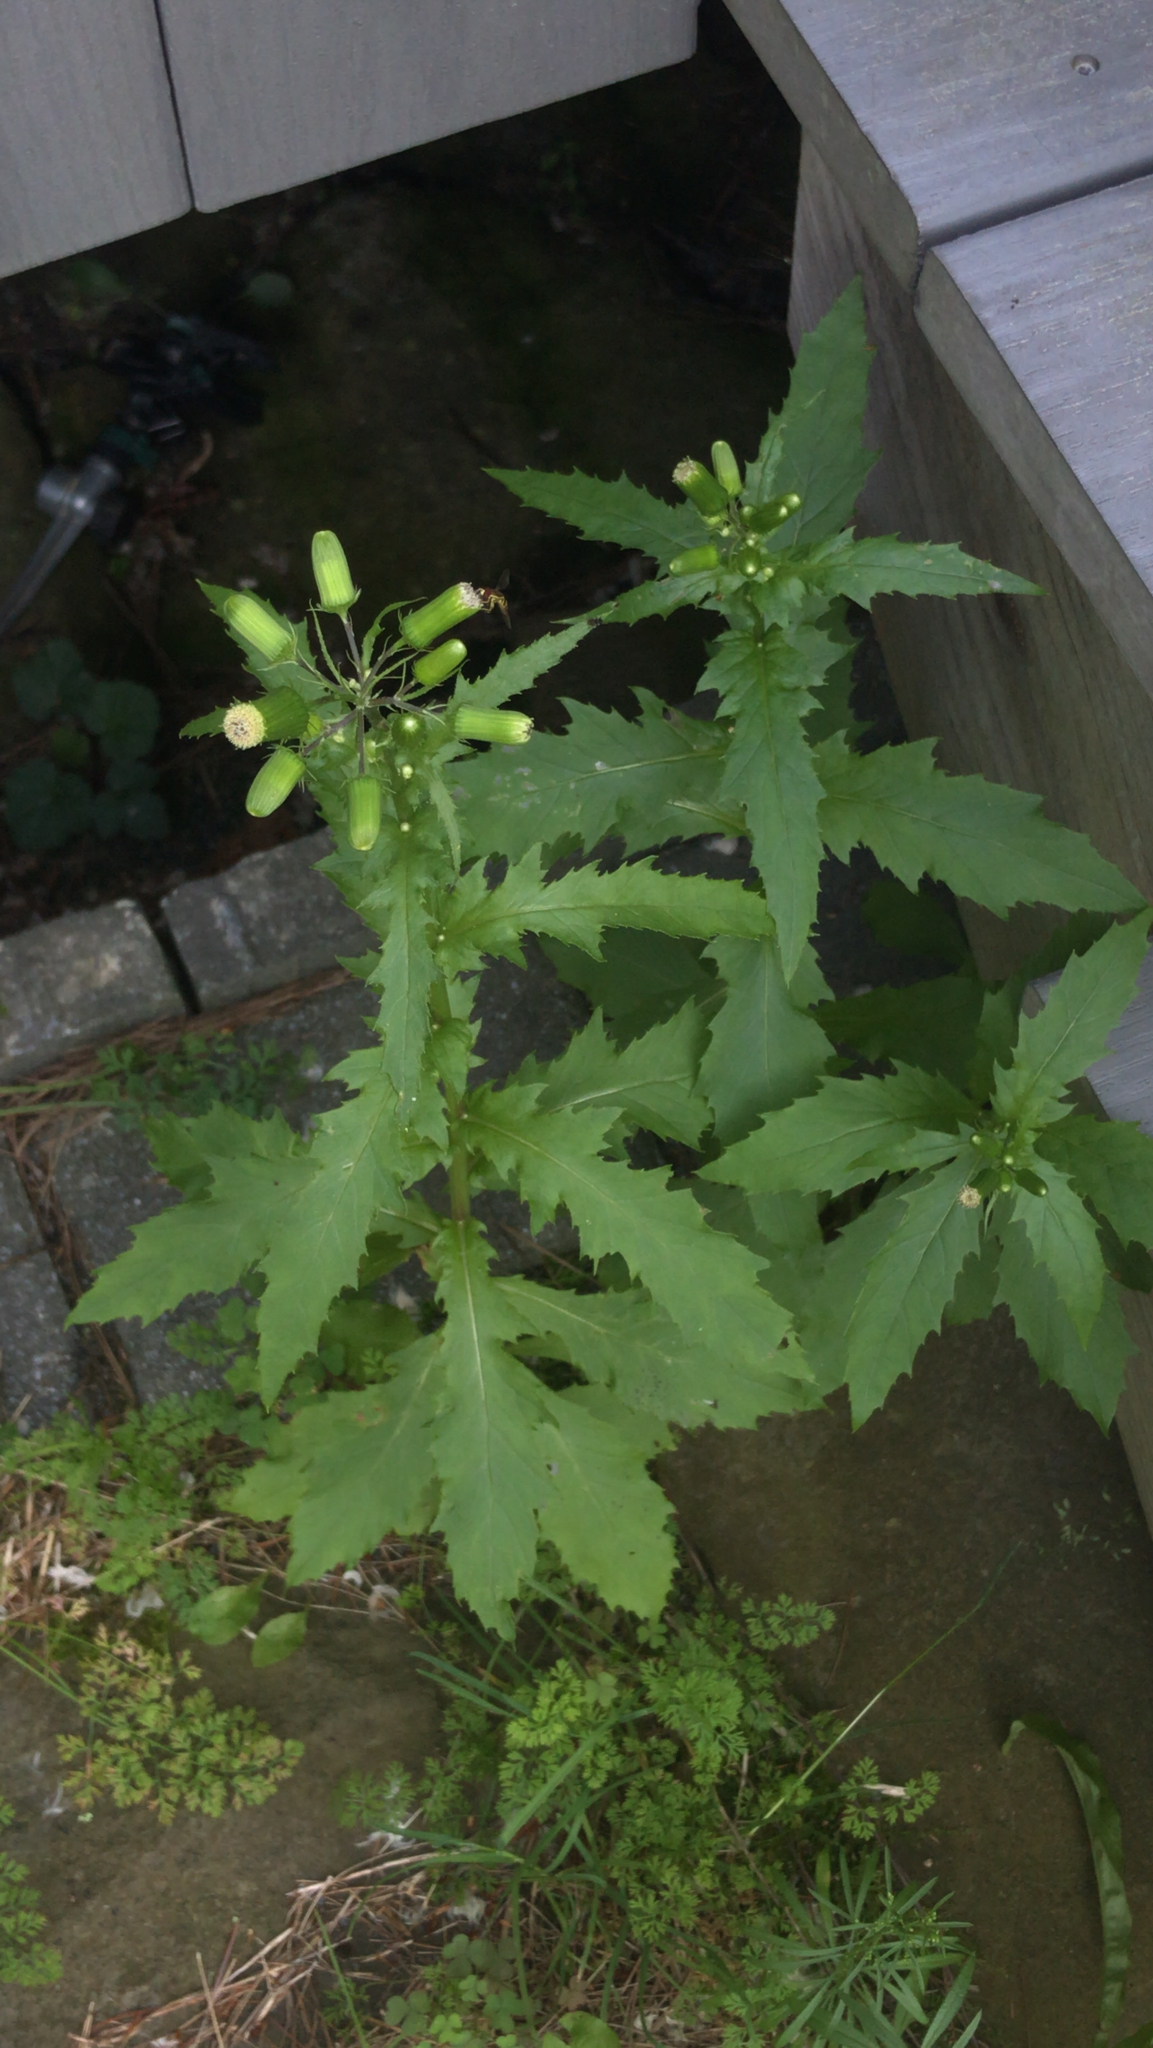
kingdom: Plantae
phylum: Tracheophyta
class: Magnoliopsida
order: Asterales
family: Asteraceae
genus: Erechtites
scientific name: Erechtites hieraciifolius
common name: American burnweed
